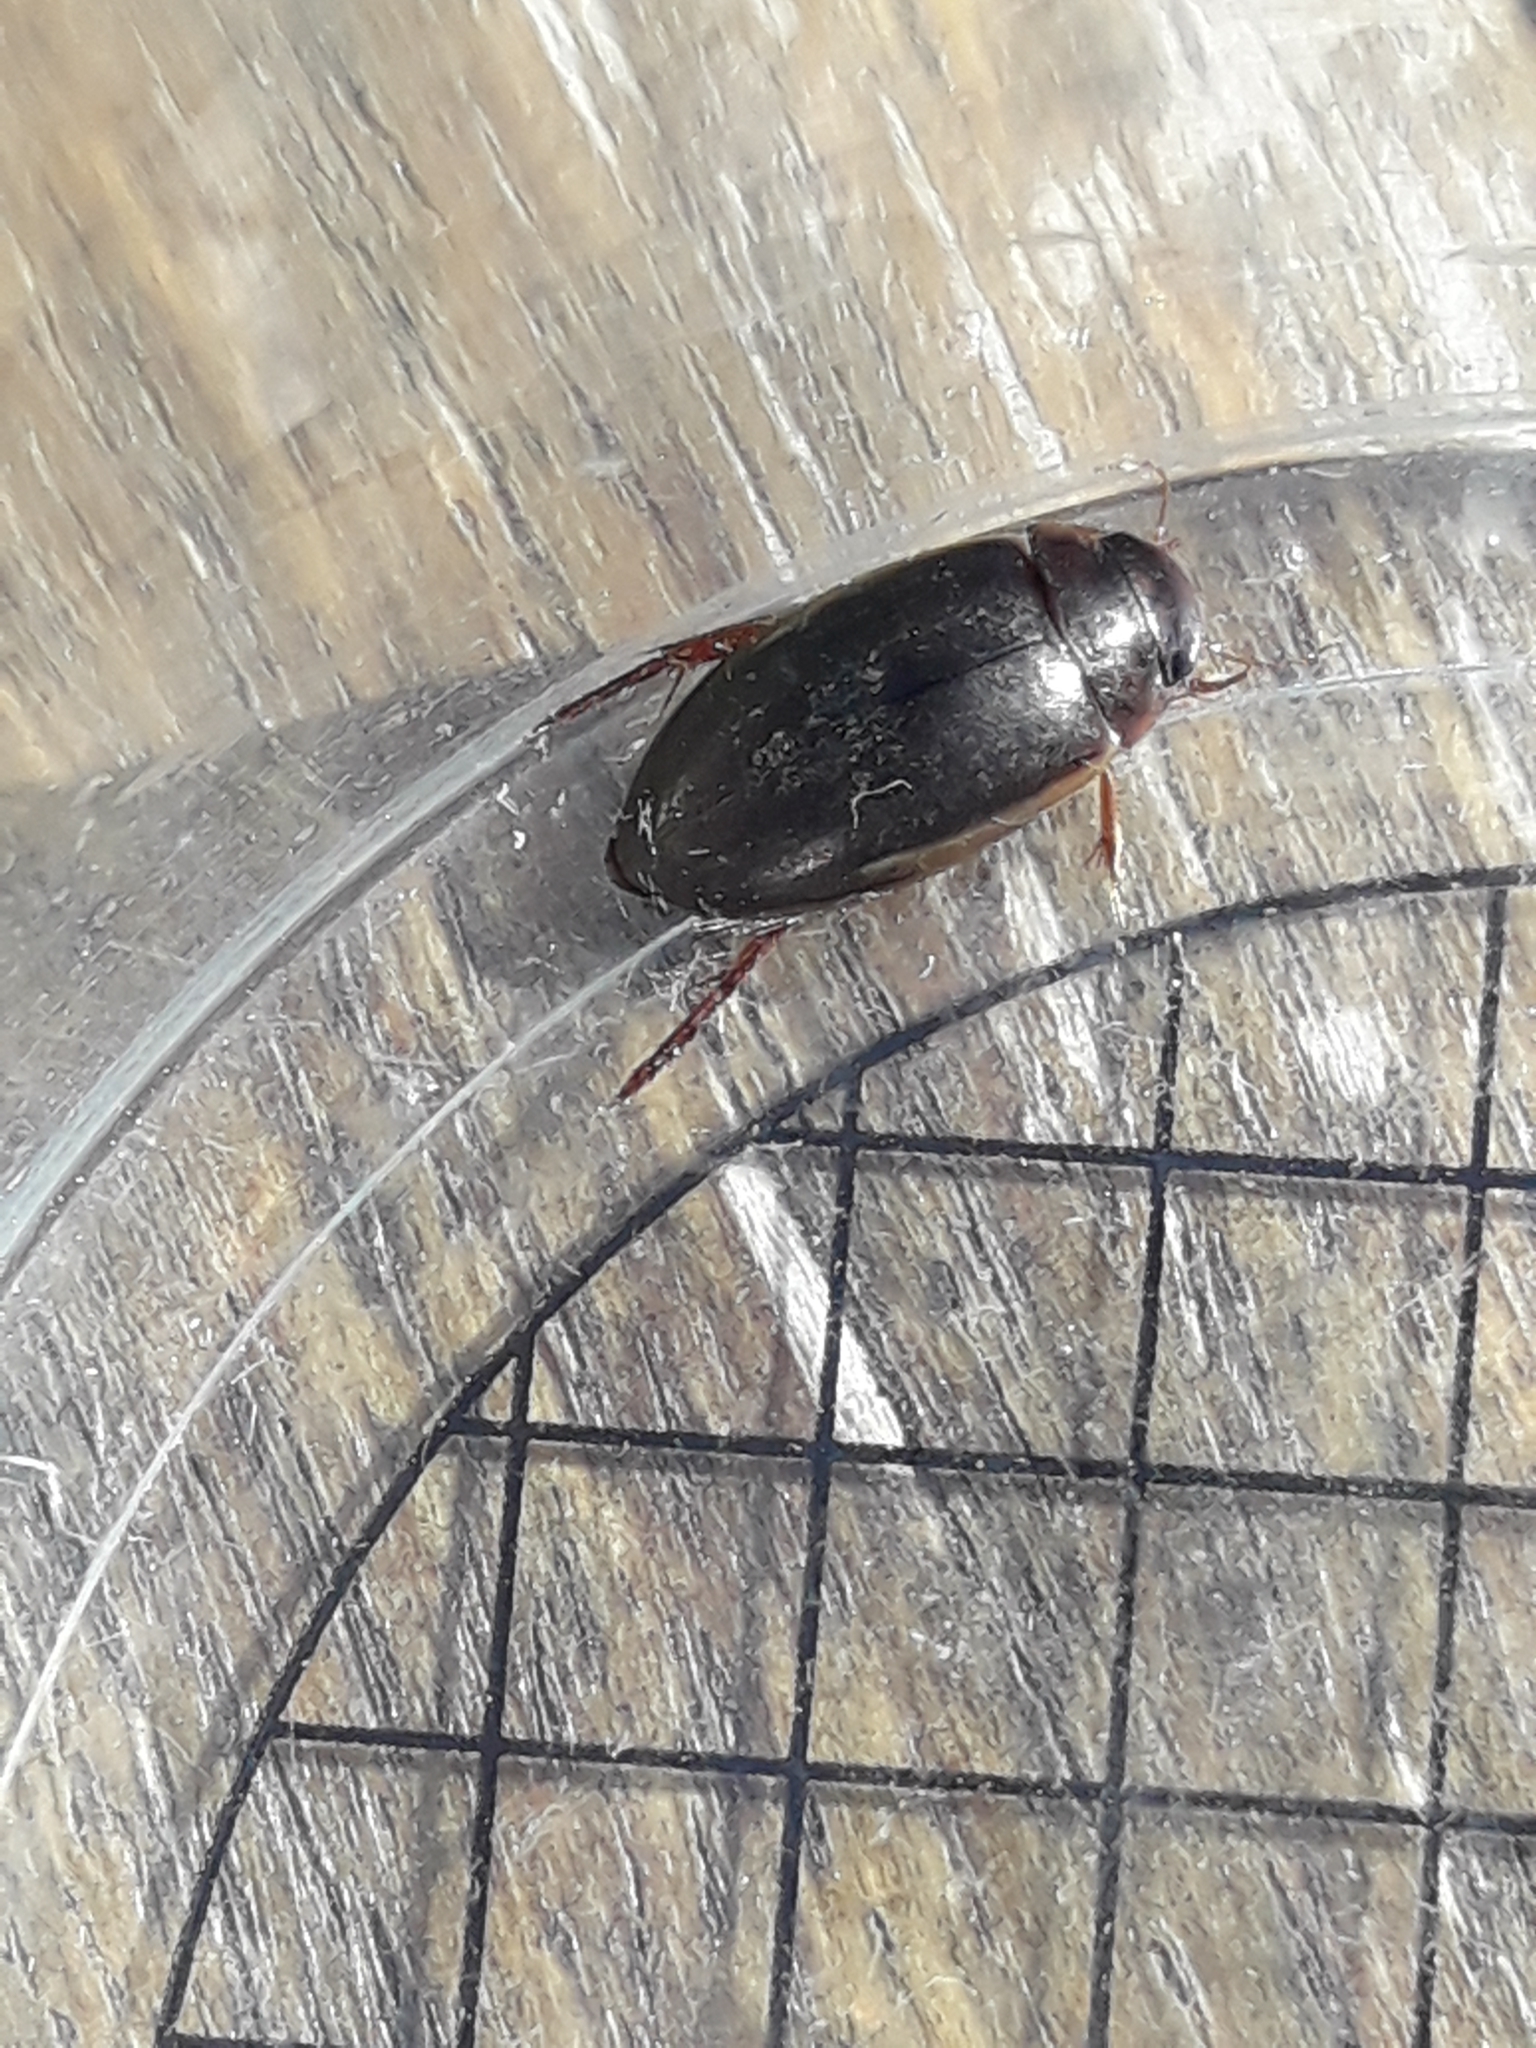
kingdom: Animalia
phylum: Arthropoda
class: Insecta
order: Coleoptera
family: Dytiscidae
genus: Ilybius
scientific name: Ilybius fuliginosus
